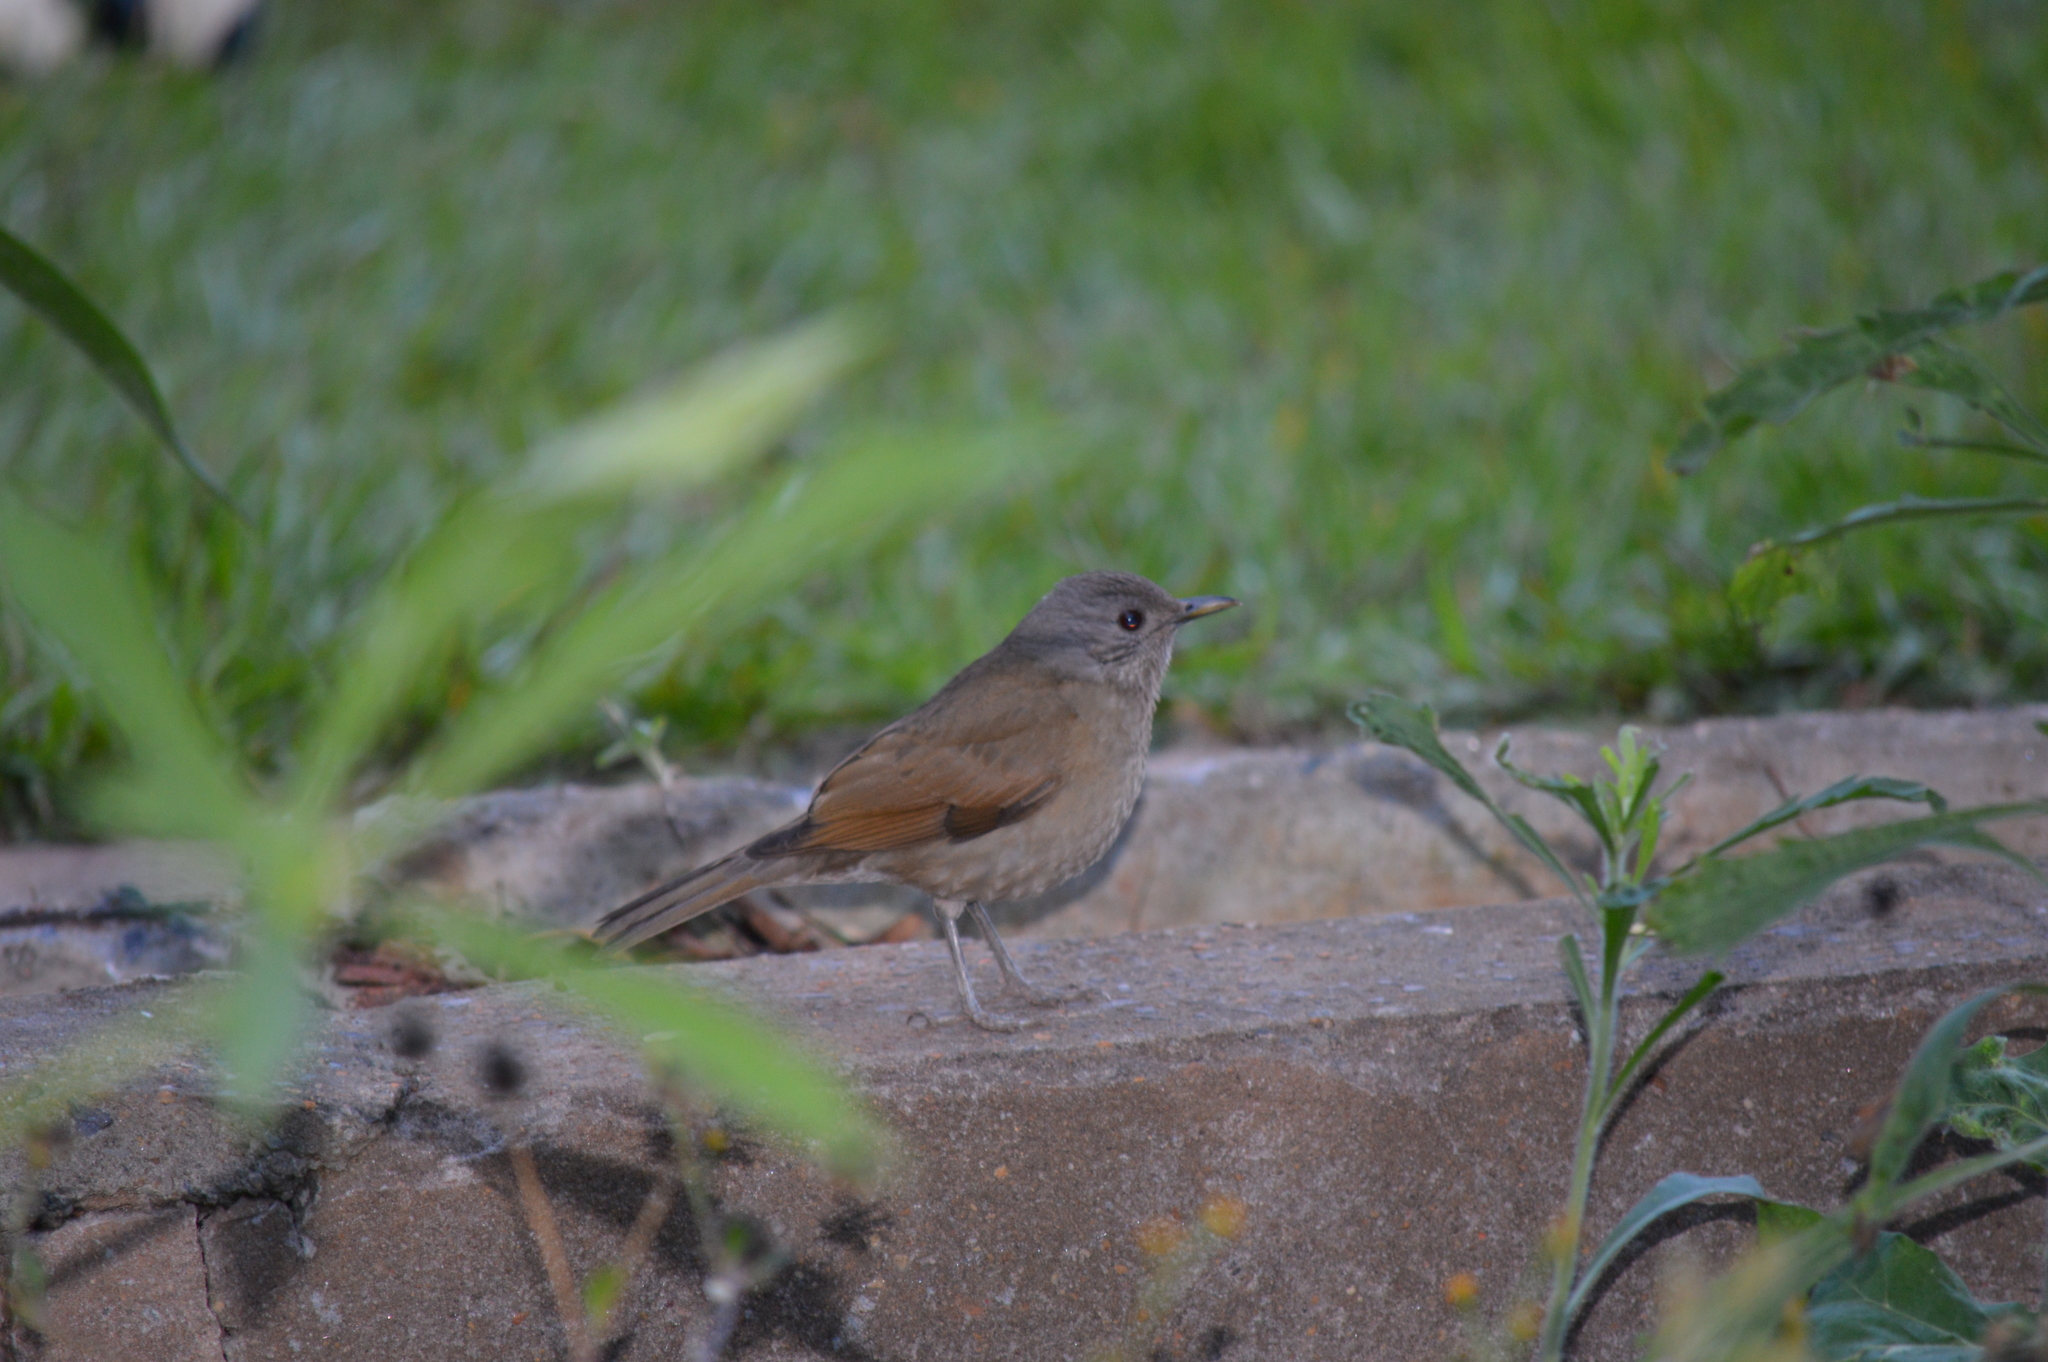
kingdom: Animalia
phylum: Chordata
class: Aves
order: Passeriformes
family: Turdidae
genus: Turdus
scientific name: Turdus leucomelas
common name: Pale-breasted thrush
